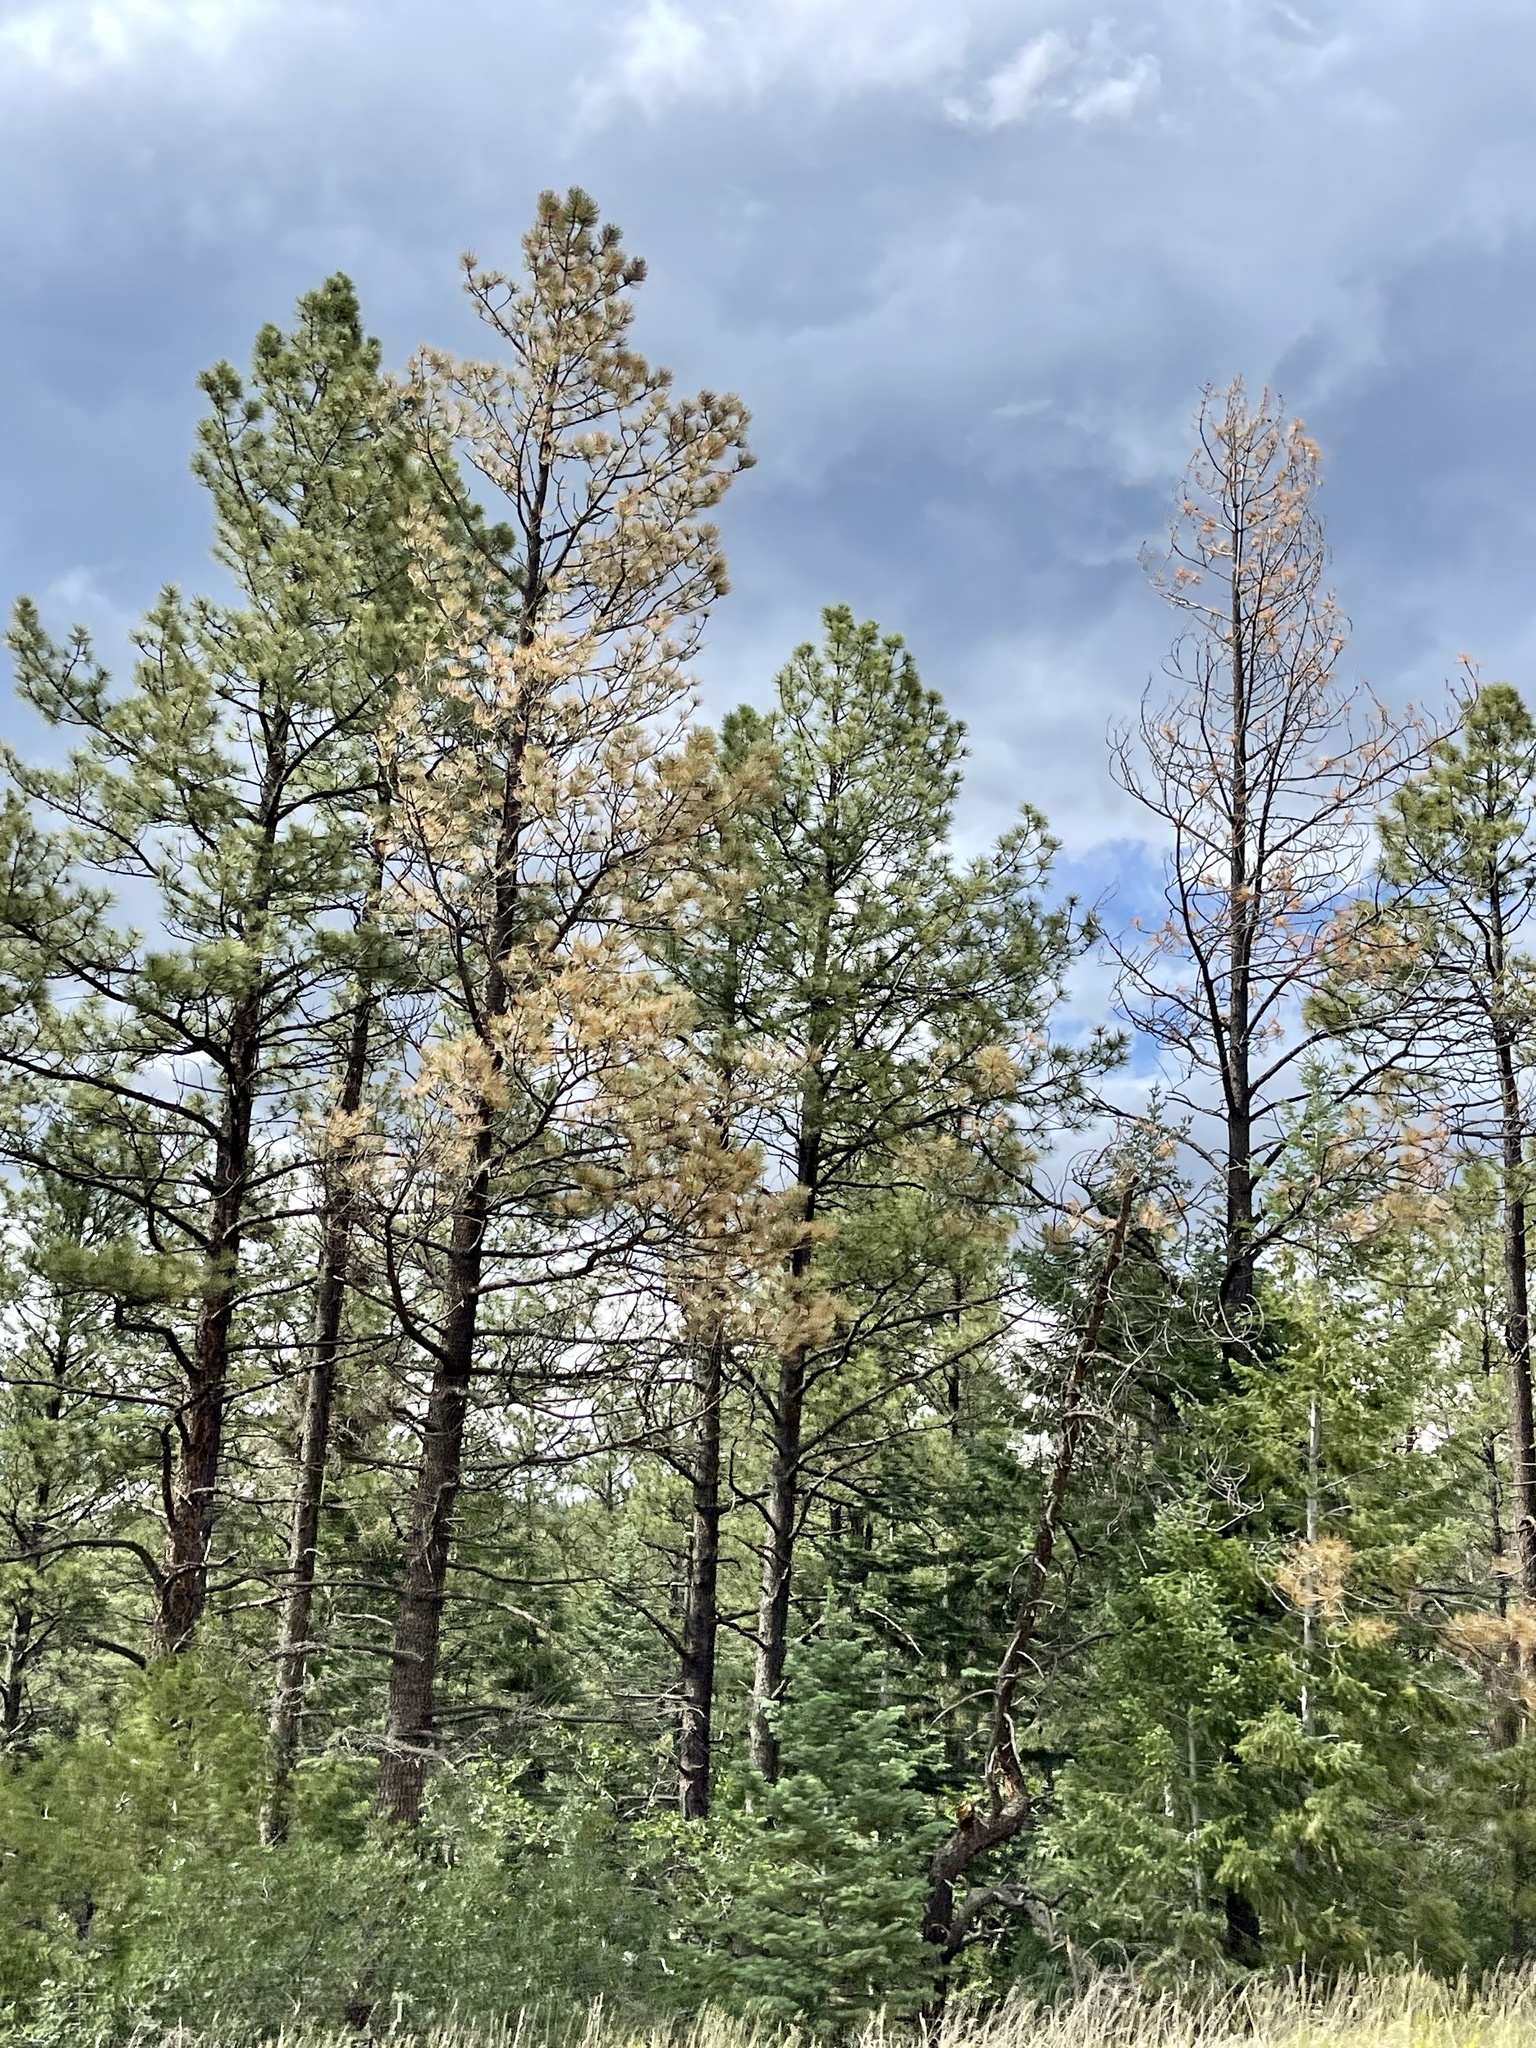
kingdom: Plantae
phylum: Tracheophyta
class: Pinopsida
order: Pinales
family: Pinaceae
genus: Pinus
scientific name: Pinus ponderosa
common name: Western yellow-pine
